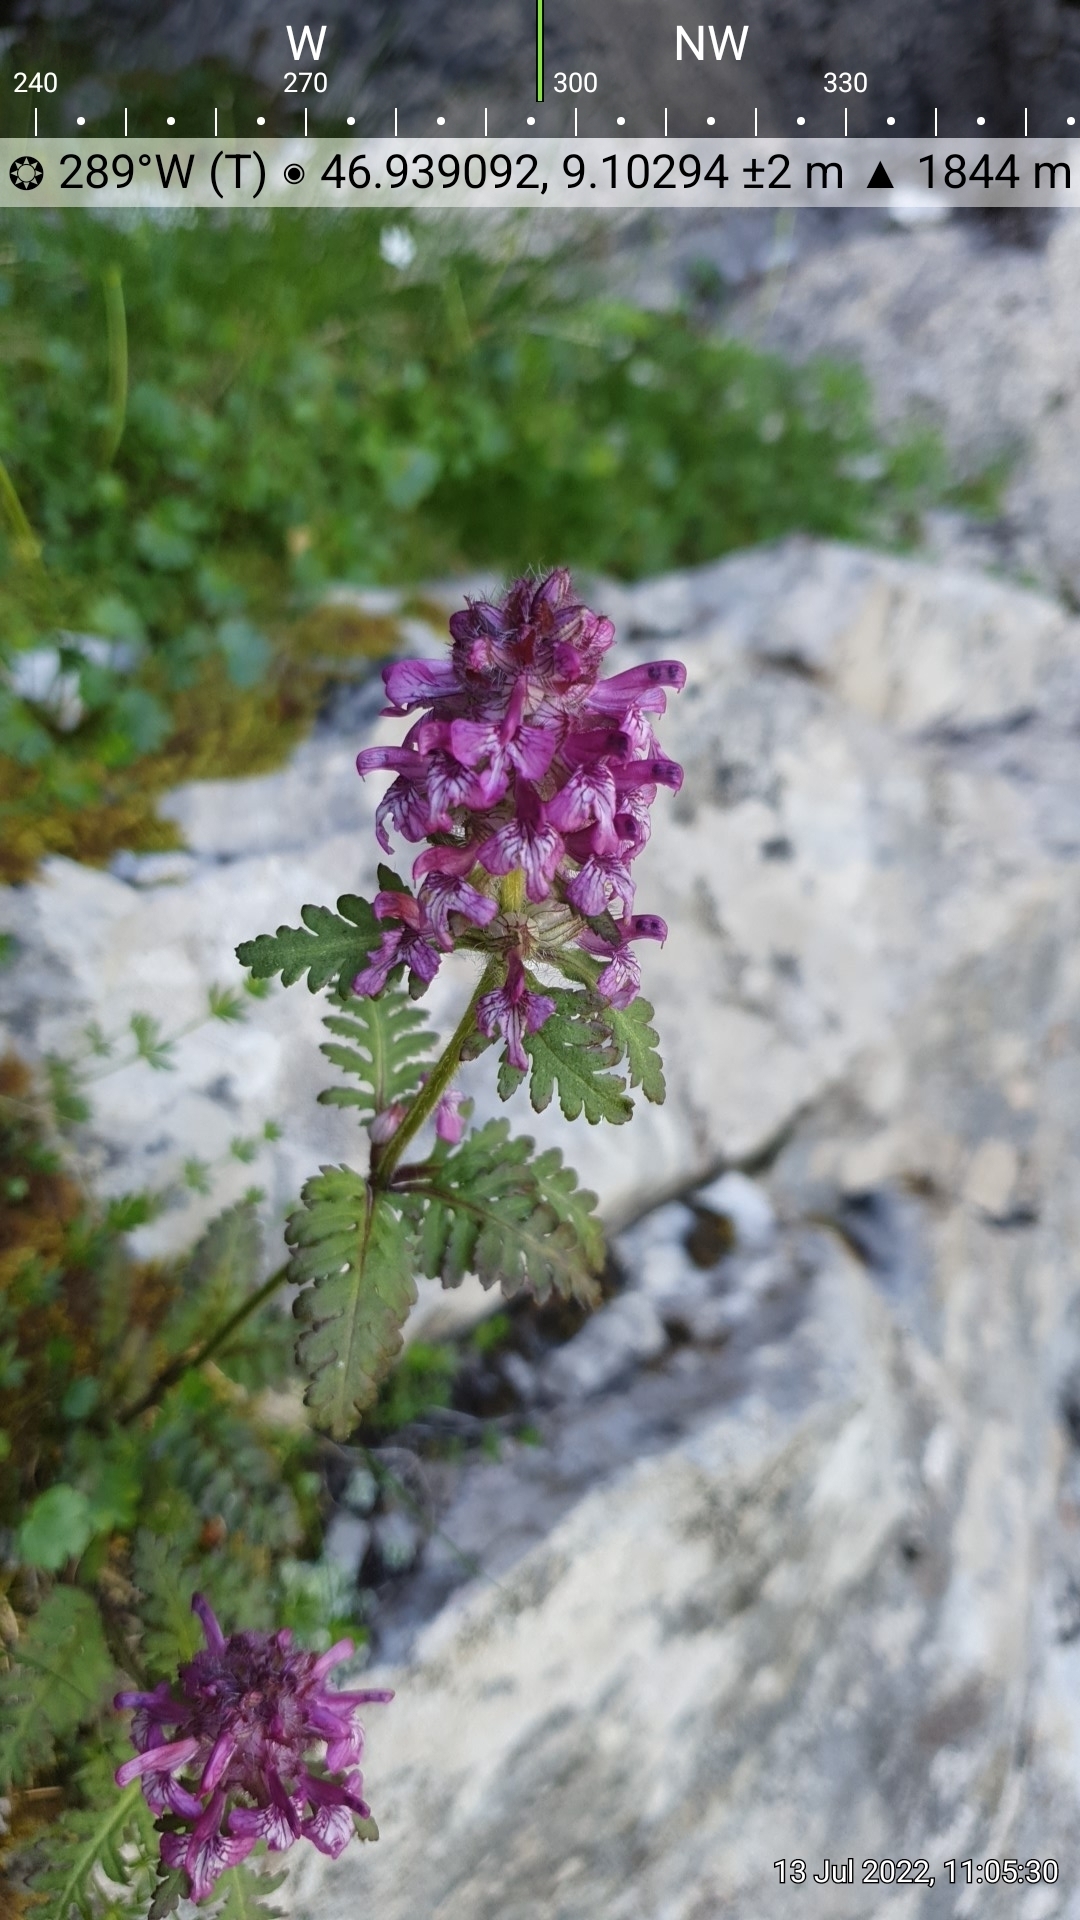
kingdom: Plantae
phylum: Tracheophyta
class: Magnoliopsida
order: Lamiales
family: Orobanchaceae
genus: Pedicularis
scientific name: Pedicularis verticillata
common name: Whorled lousewort
